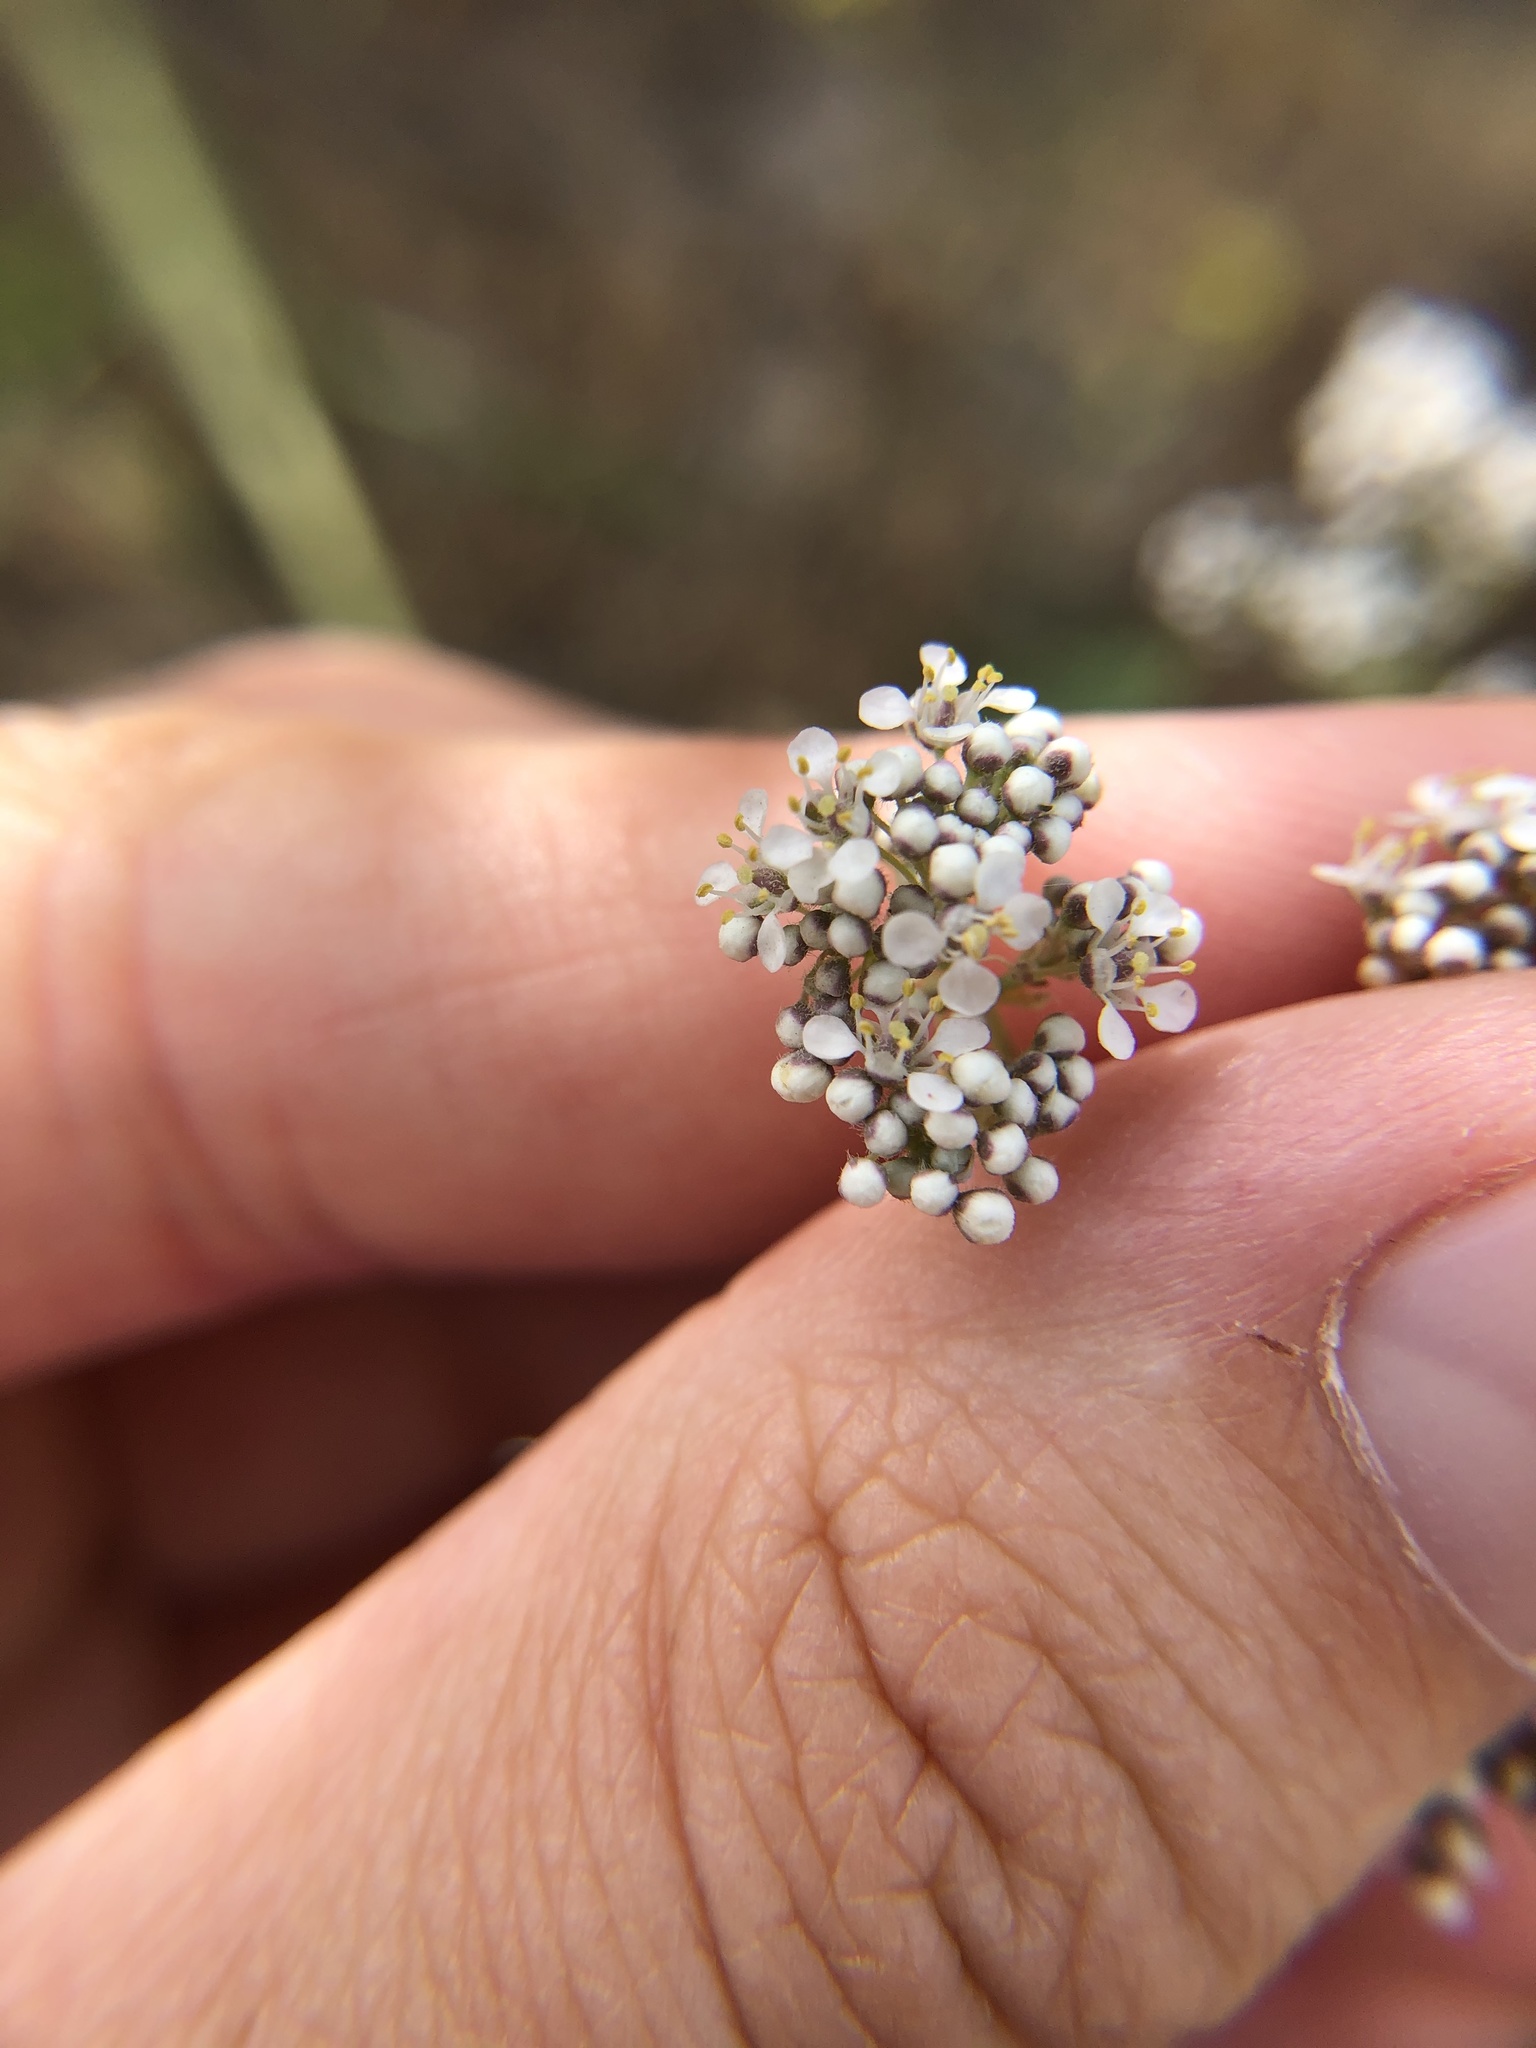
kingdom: Plantae
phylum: Tracheophyta
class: Magnoliopsida
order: Brassicales
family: Brassicaceae
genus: Lepidium
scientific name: Lepidium latifolium
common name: Dittander
